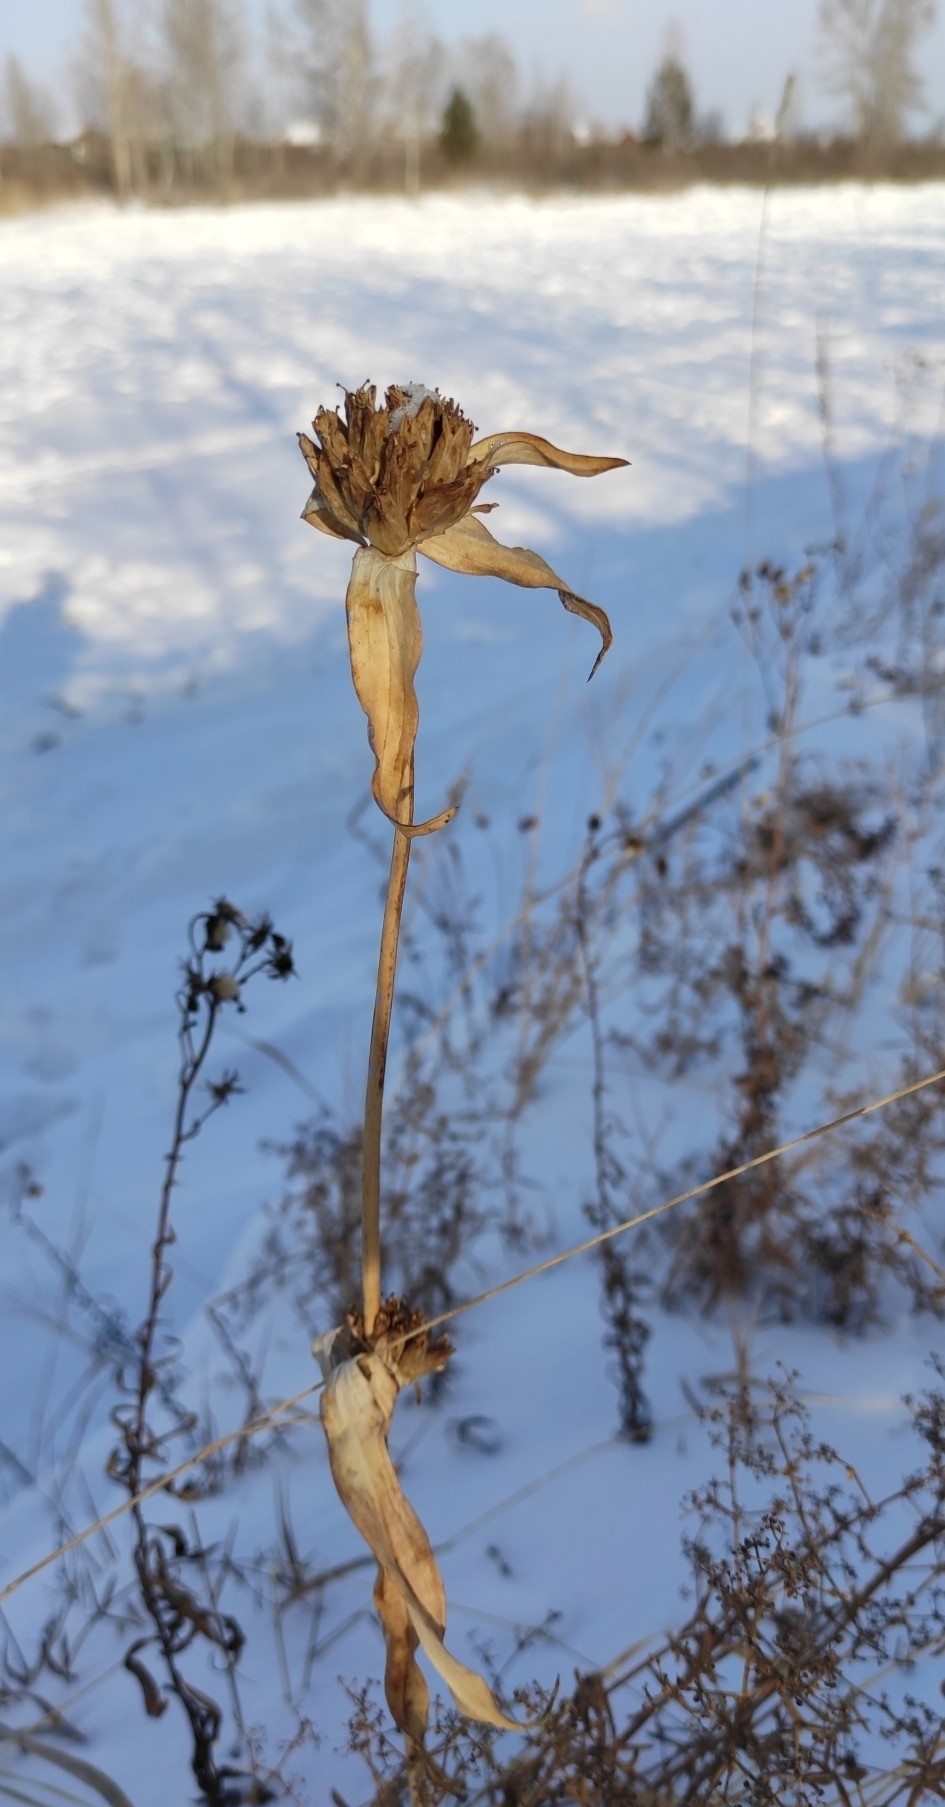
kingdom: Plantae
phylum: Tracheophyta
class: Magnoliopsida
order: Gentianales
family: Gentianaceae
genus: Gentiana
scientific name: Gentiana macrophylla
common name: Large-leaf gentian
